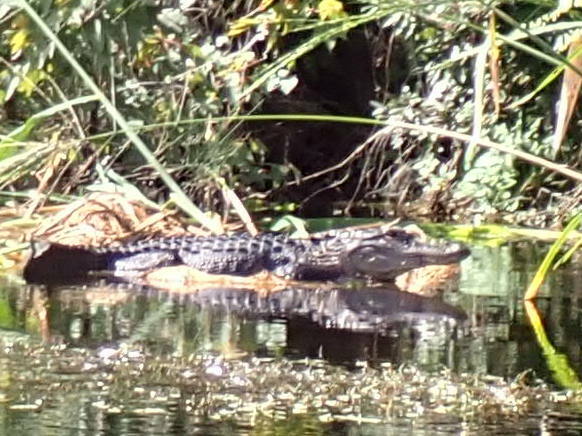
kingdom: Animalia
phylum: Chordata
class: Crocodylia
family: Alligatoridae
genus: Alligator
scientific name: Alligator mississippiensis
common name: American alligator
